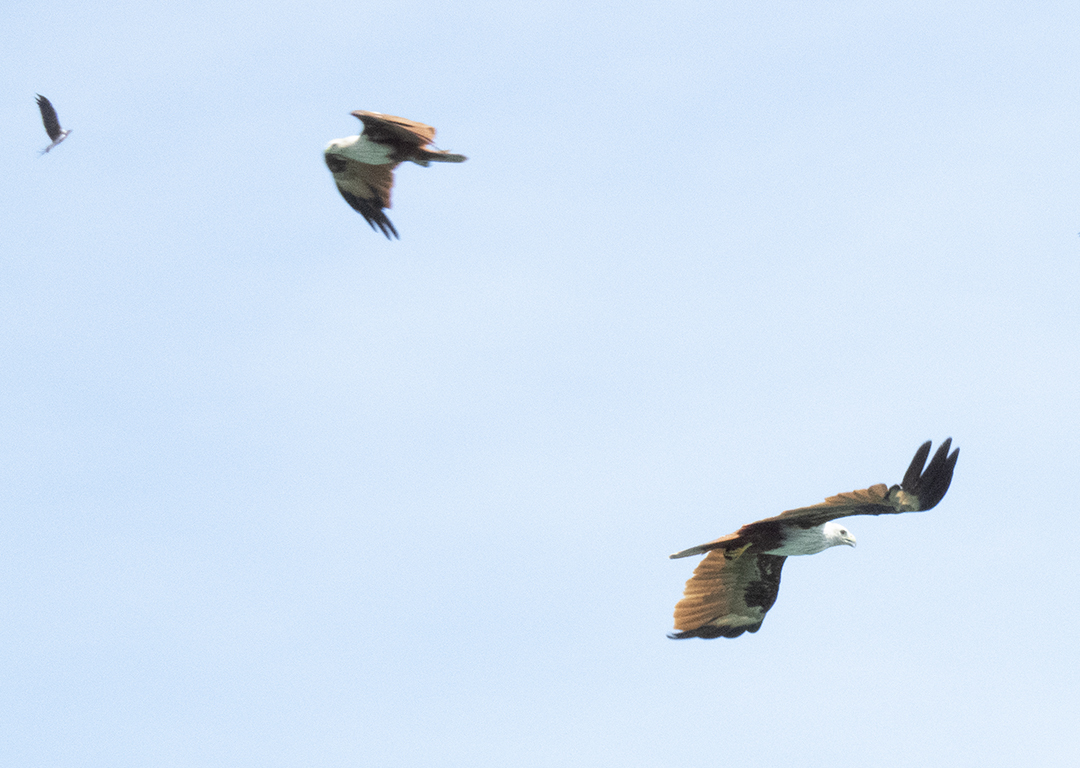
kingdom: Animalia
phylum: Chordata
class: Aves
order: Accipitriformes
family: Accipitridae
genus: Haliastur
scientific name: Haliastur indus
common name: Brahminy kite
